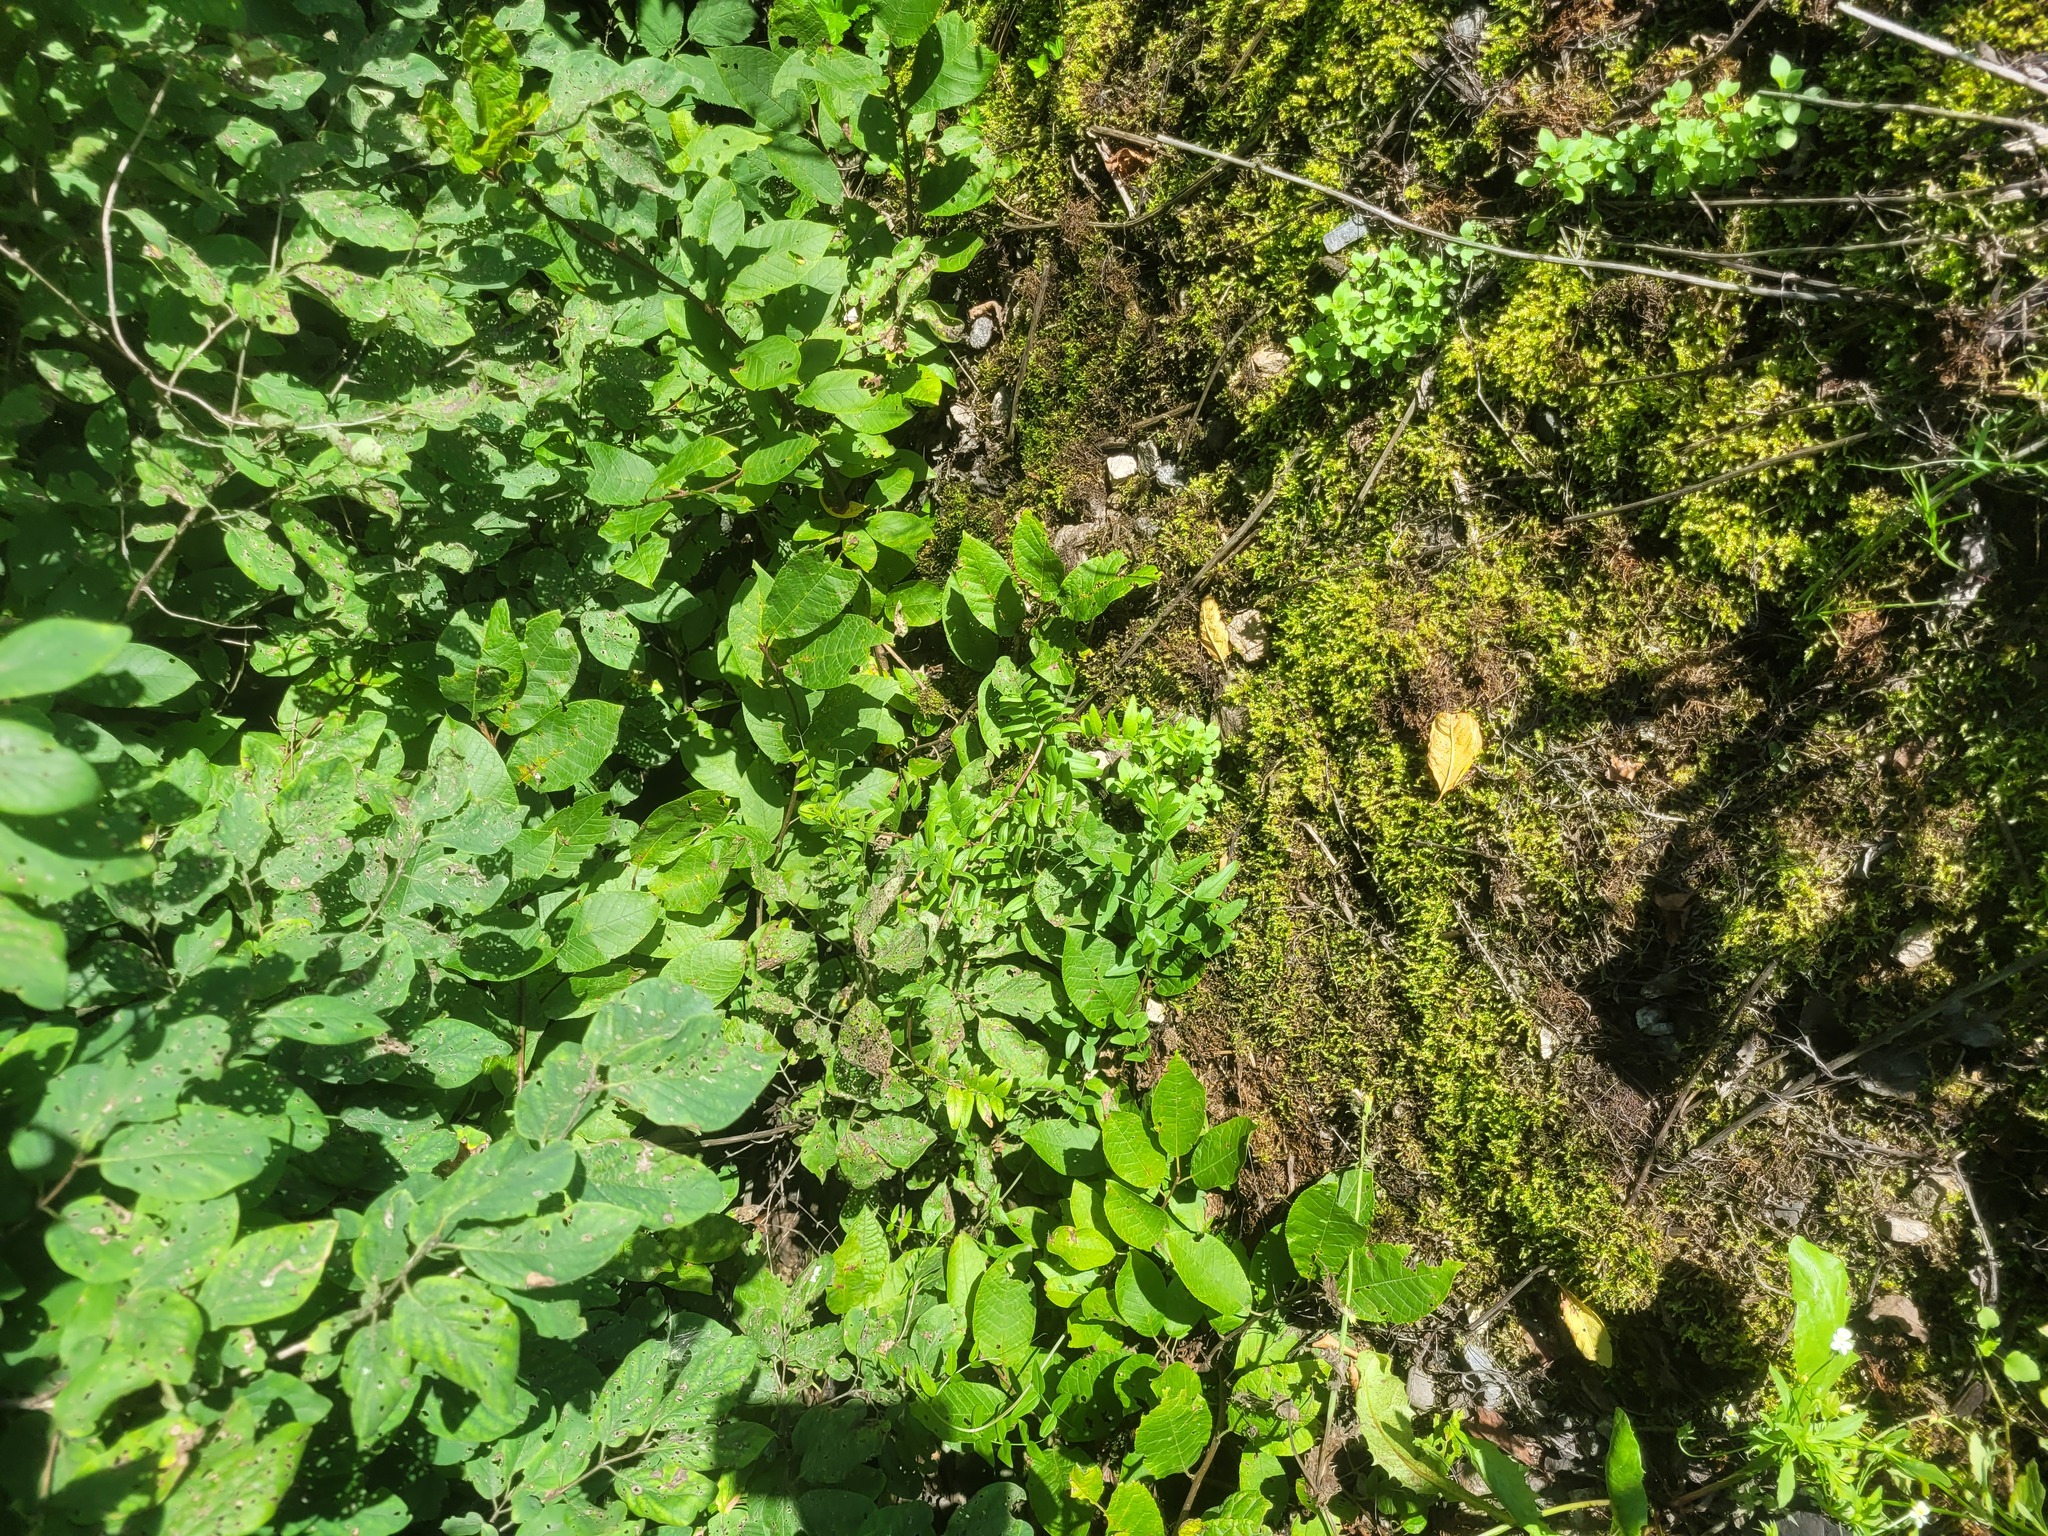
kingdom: Plantae
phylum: Tracheophyta
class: Magnoliopsida
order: Fabales
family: Fabaceae
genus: Vicia
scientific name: Vicia sepium
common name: Bush vetch
